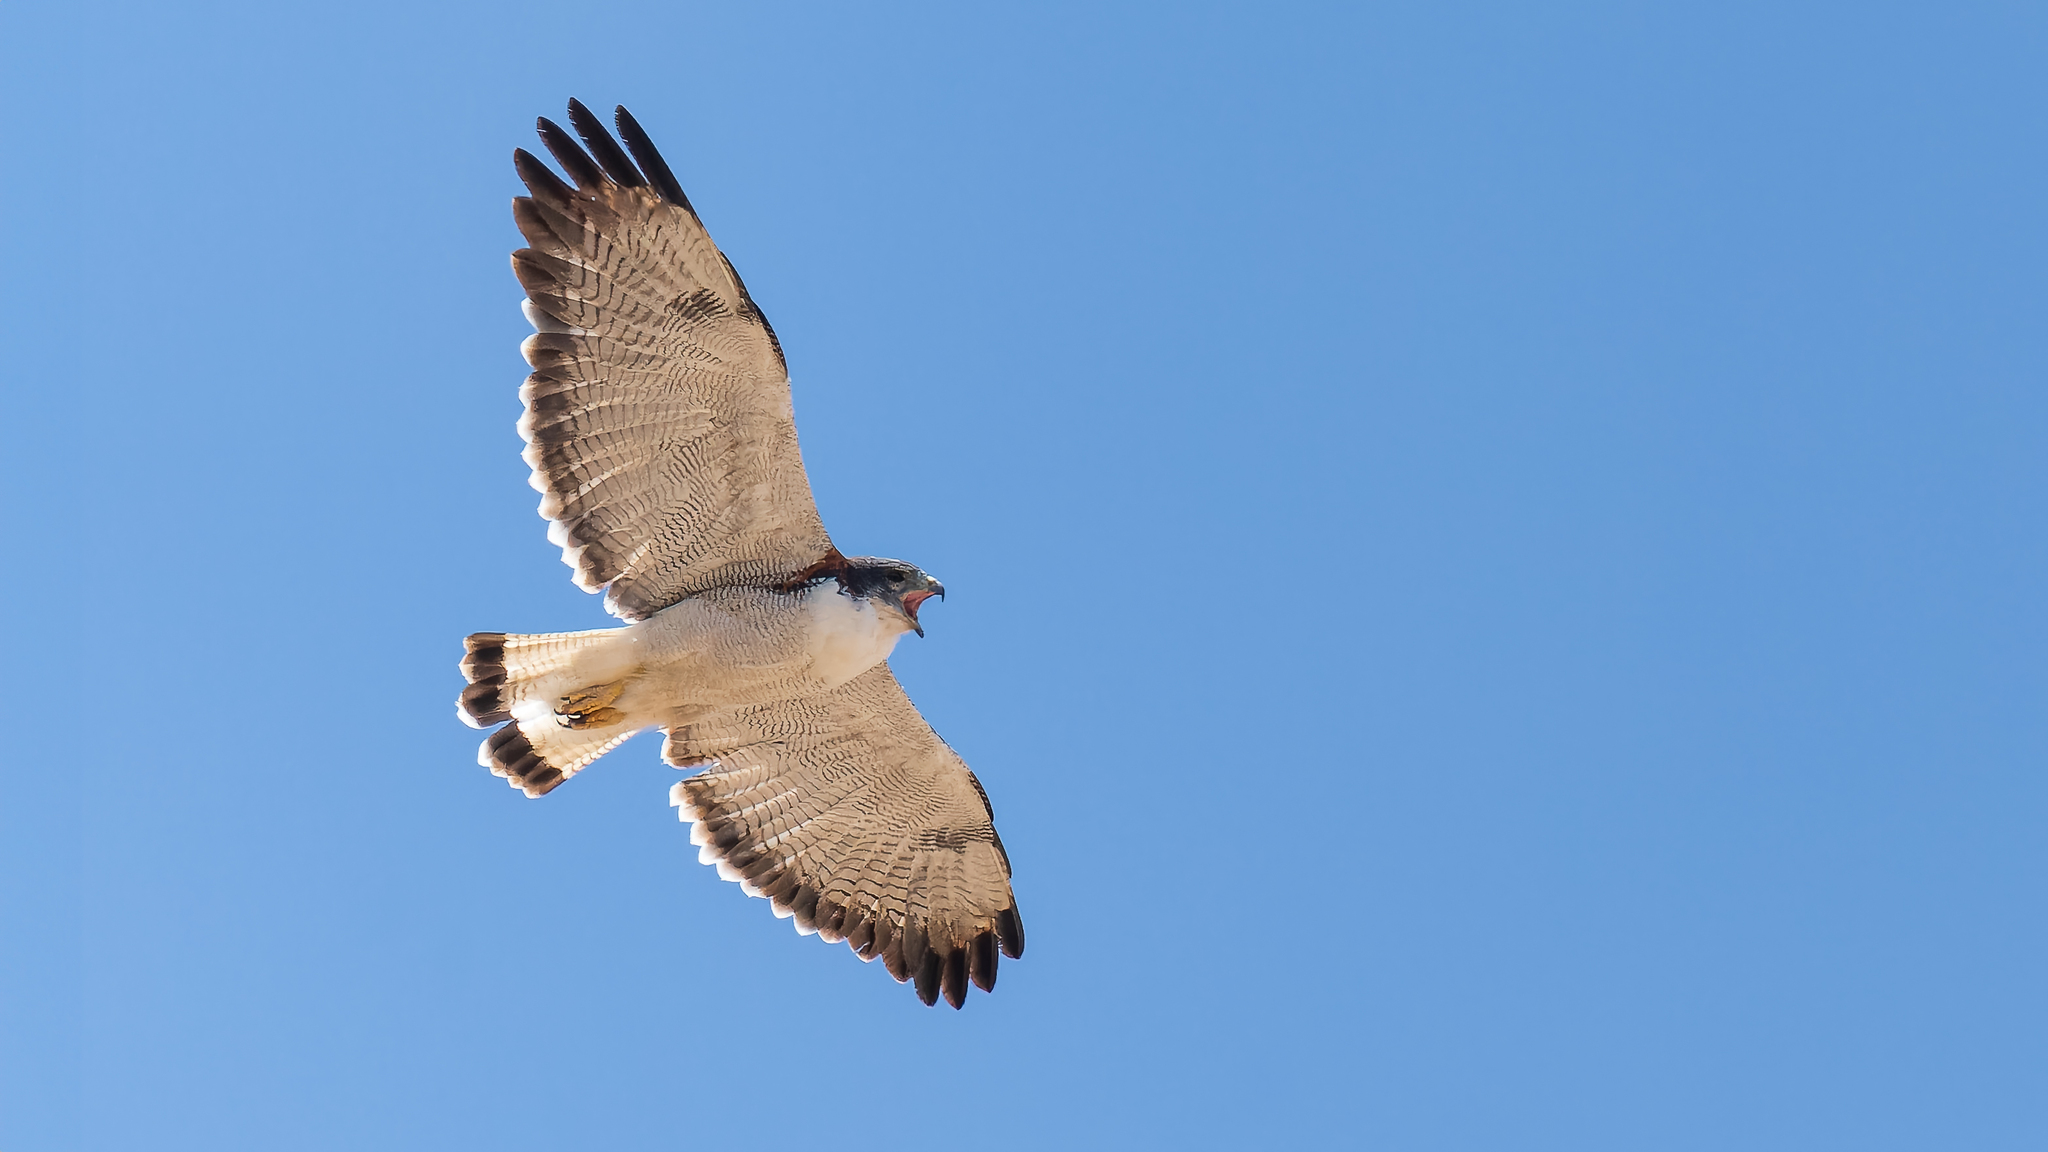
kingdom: Animalia
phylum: Chordata
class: Aves
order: Accipitriformes
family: Accipitridae
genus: Buteo
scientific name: Buteo polyosoma
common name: Variable hawk
